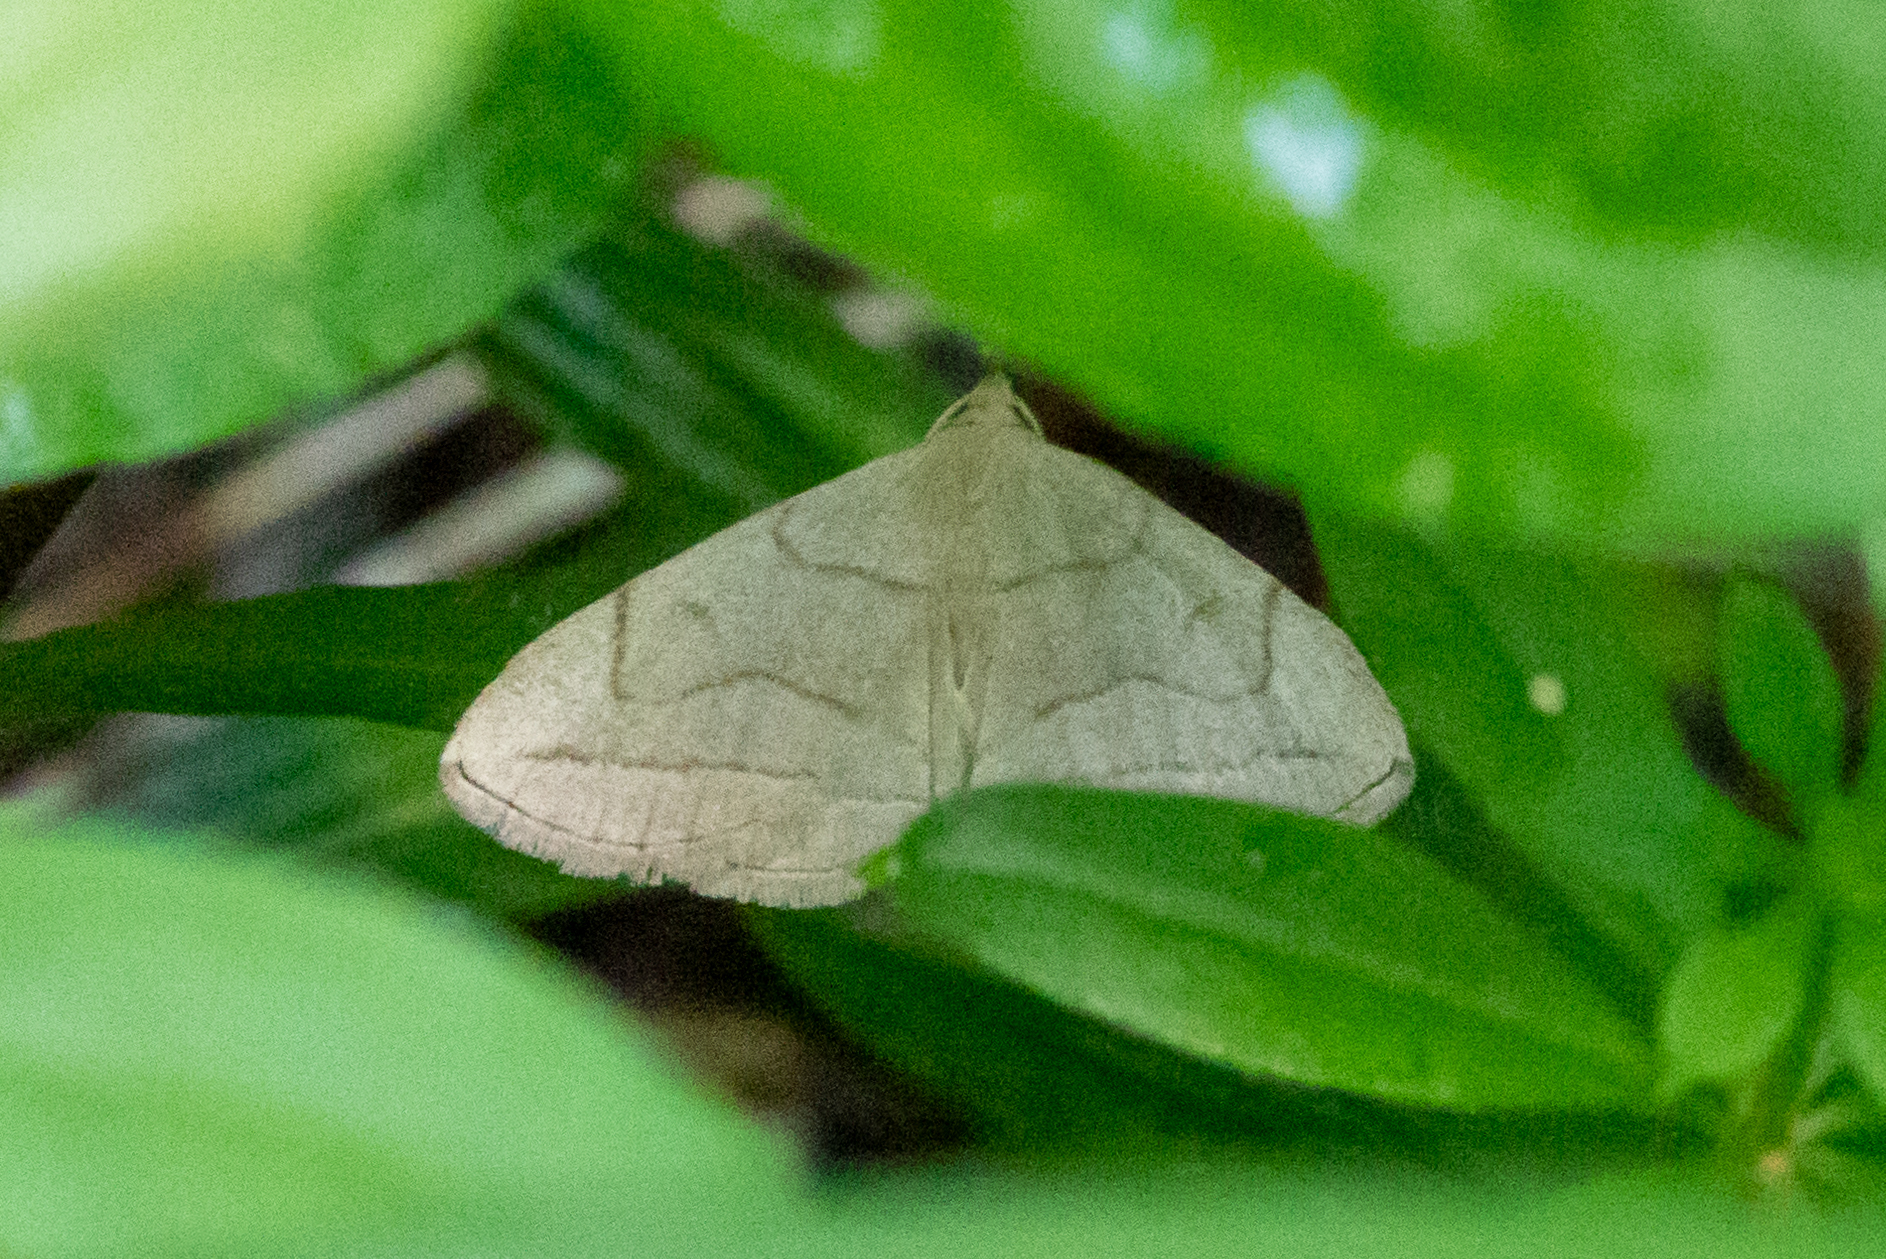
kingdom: Animalia
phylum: Arthropoda
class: Insecta
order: Lepidoptera
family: Erebidae
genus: Zanclognatha
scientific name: Zanclognatha pedipilalis
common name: Grayish fan-foot
